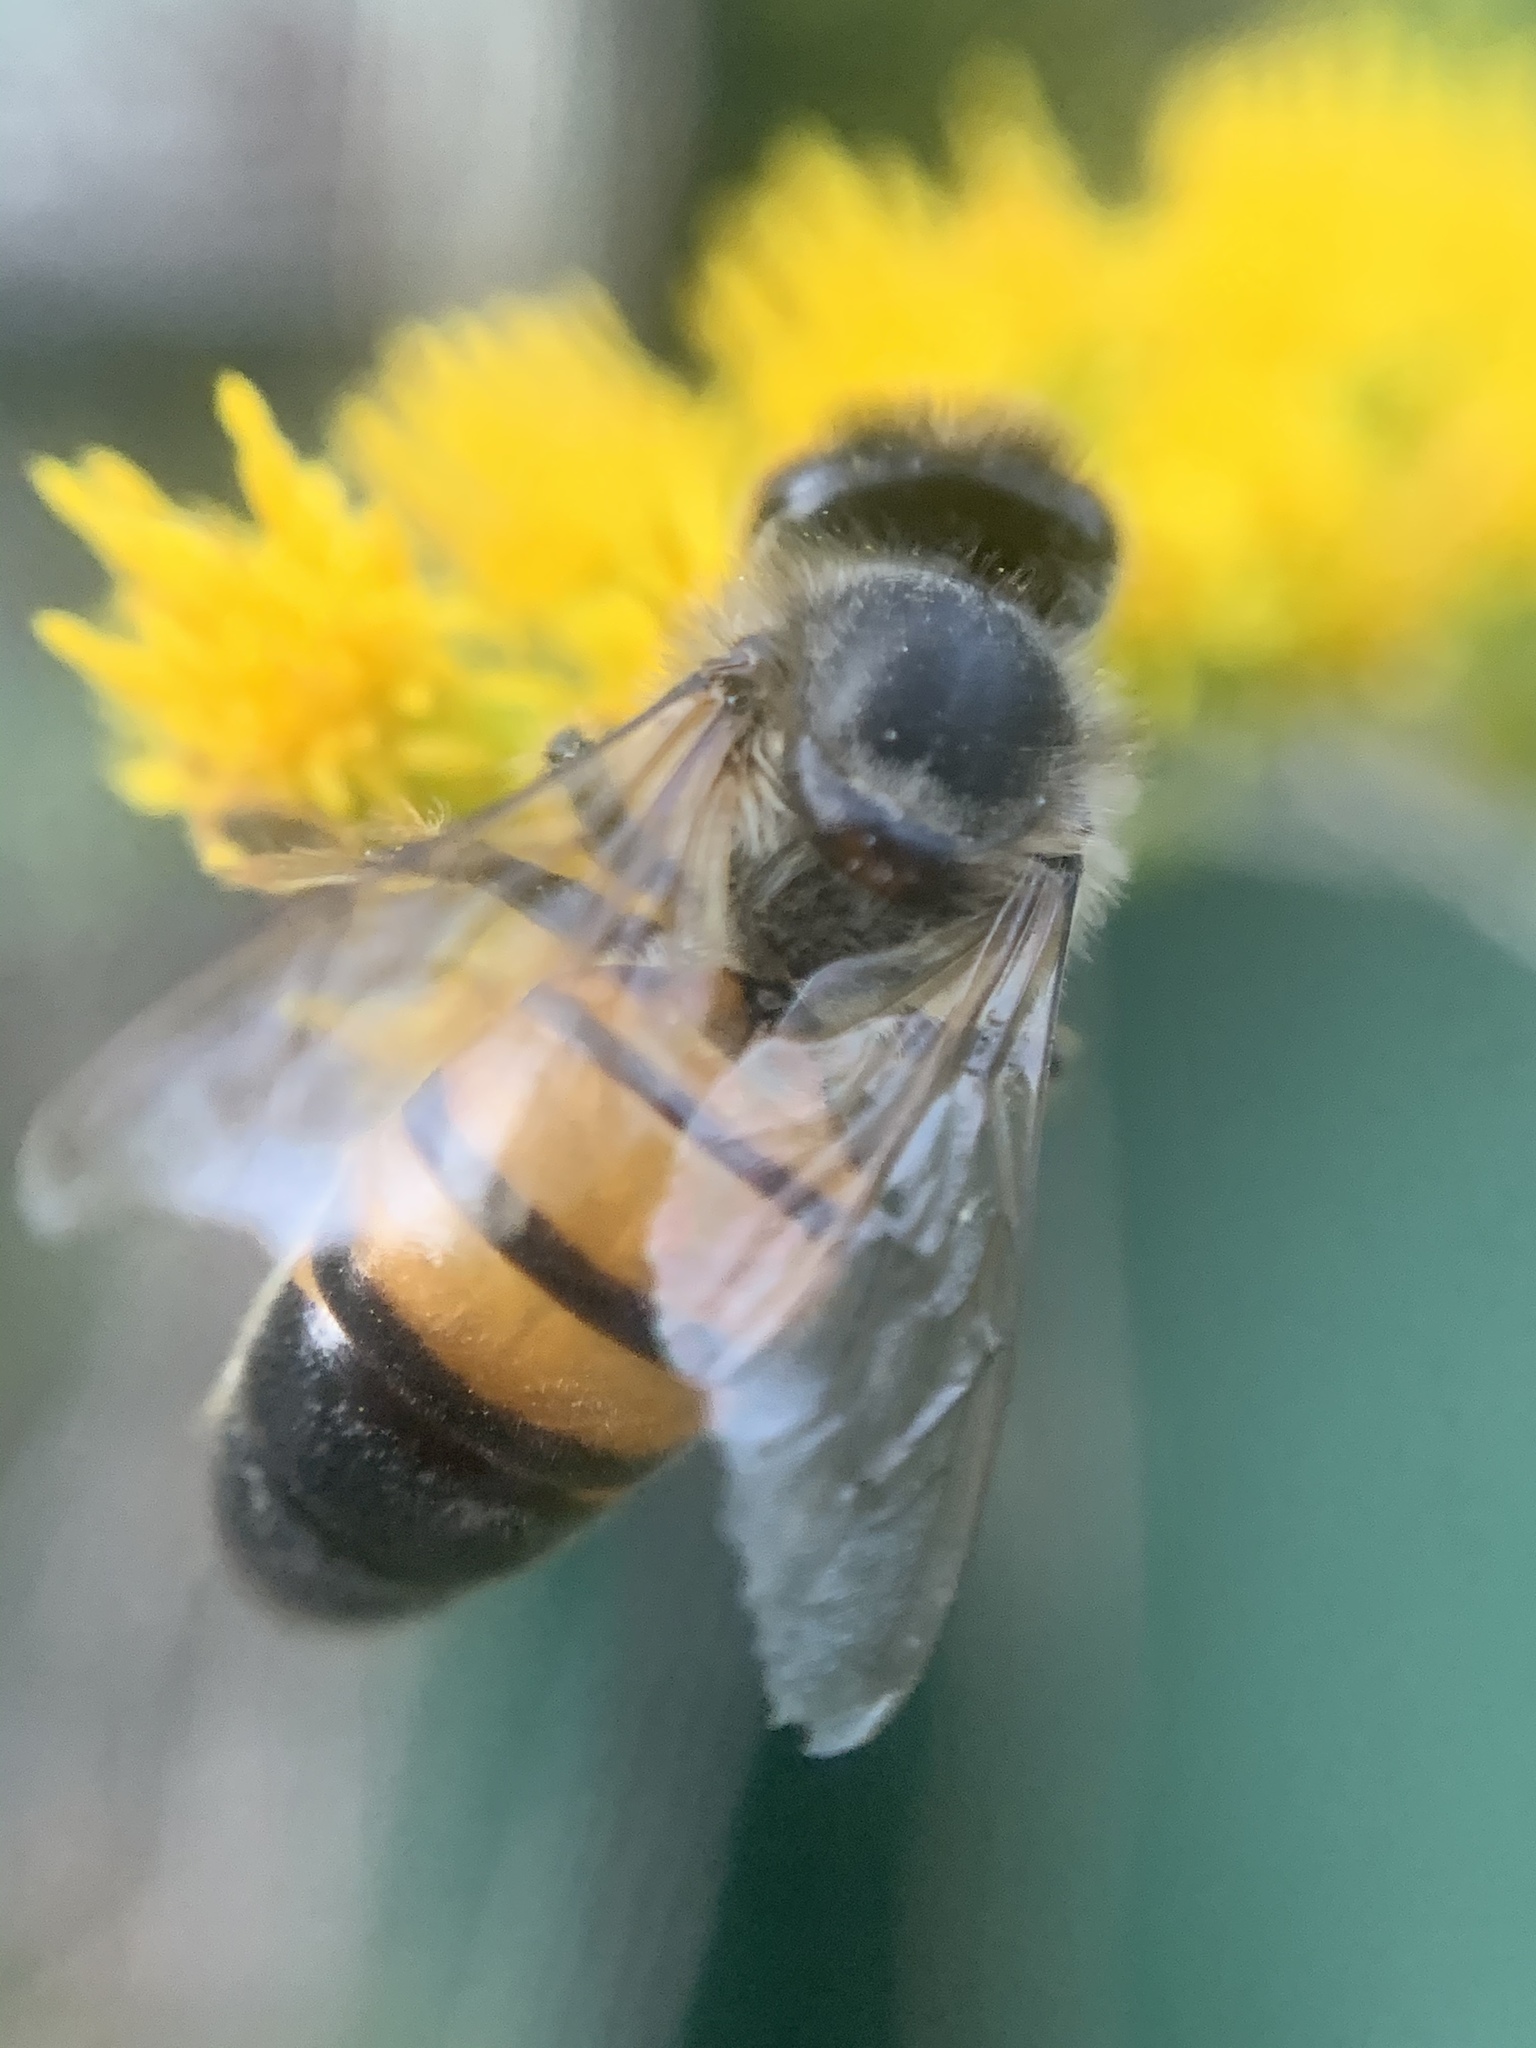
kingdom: Animalia
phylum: Arthropoda
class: Insecta
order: Hymenoptera
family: Apidae
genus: Apis
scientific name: Apis mellifera
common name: Honey bee
